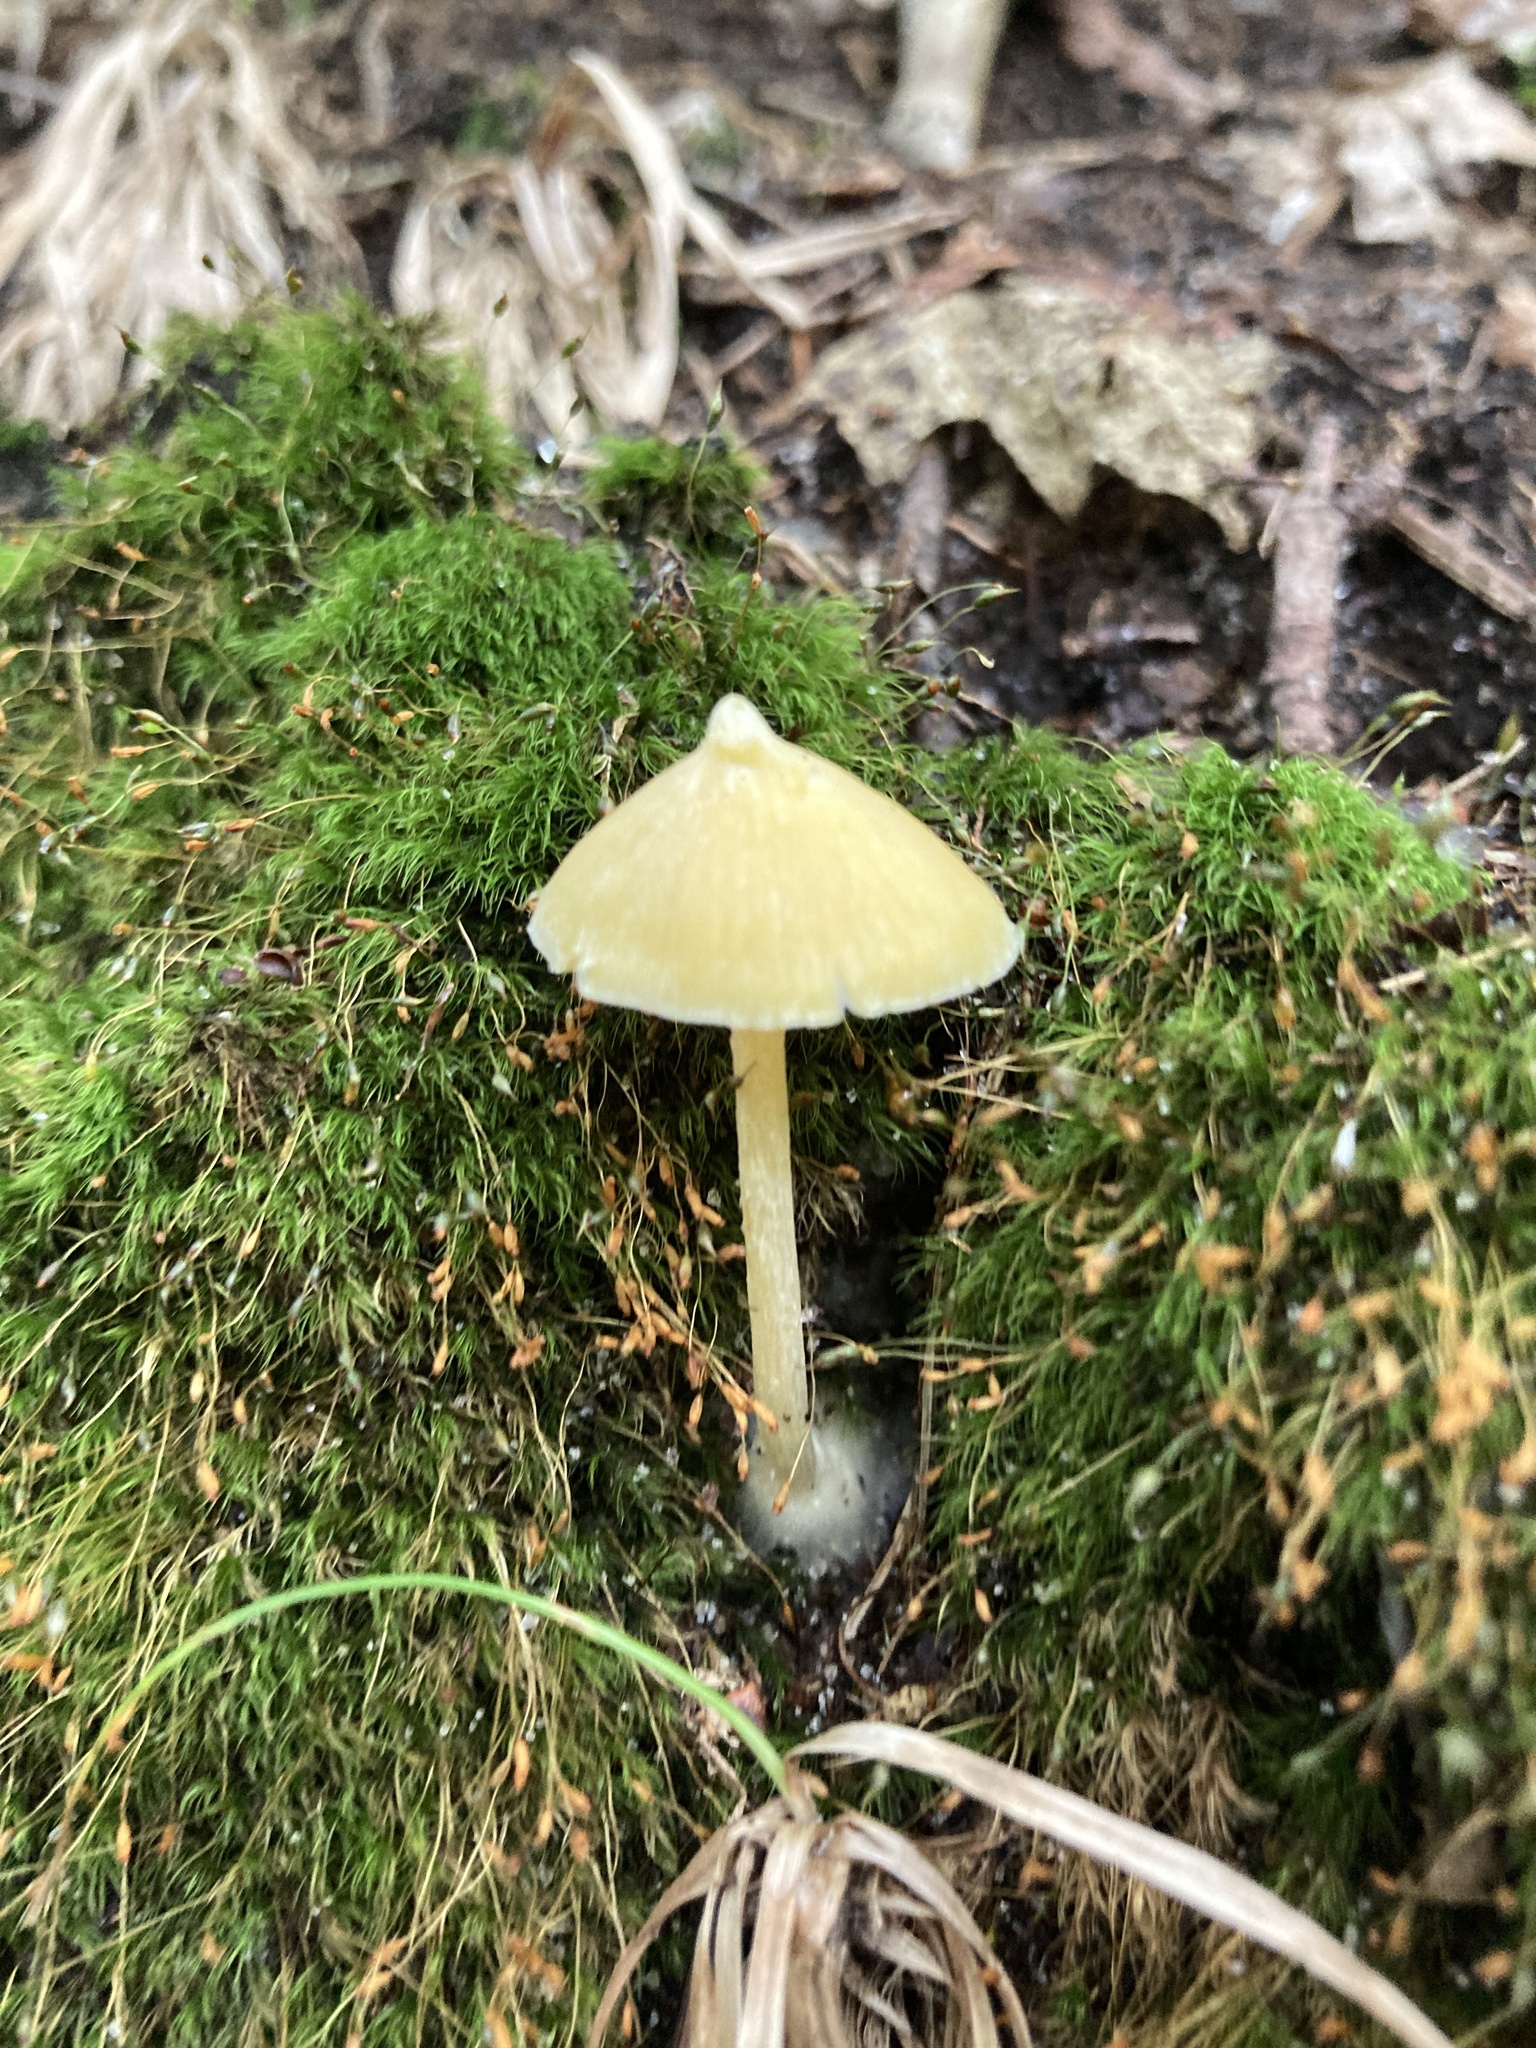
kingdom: Fungi
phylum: Basidiomycota
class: Agaricomycetes
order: Agaricales
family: Entolomataceae
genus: Entoloma
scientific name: Entoloma murrayi
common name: Yellow unicorn entoloma
